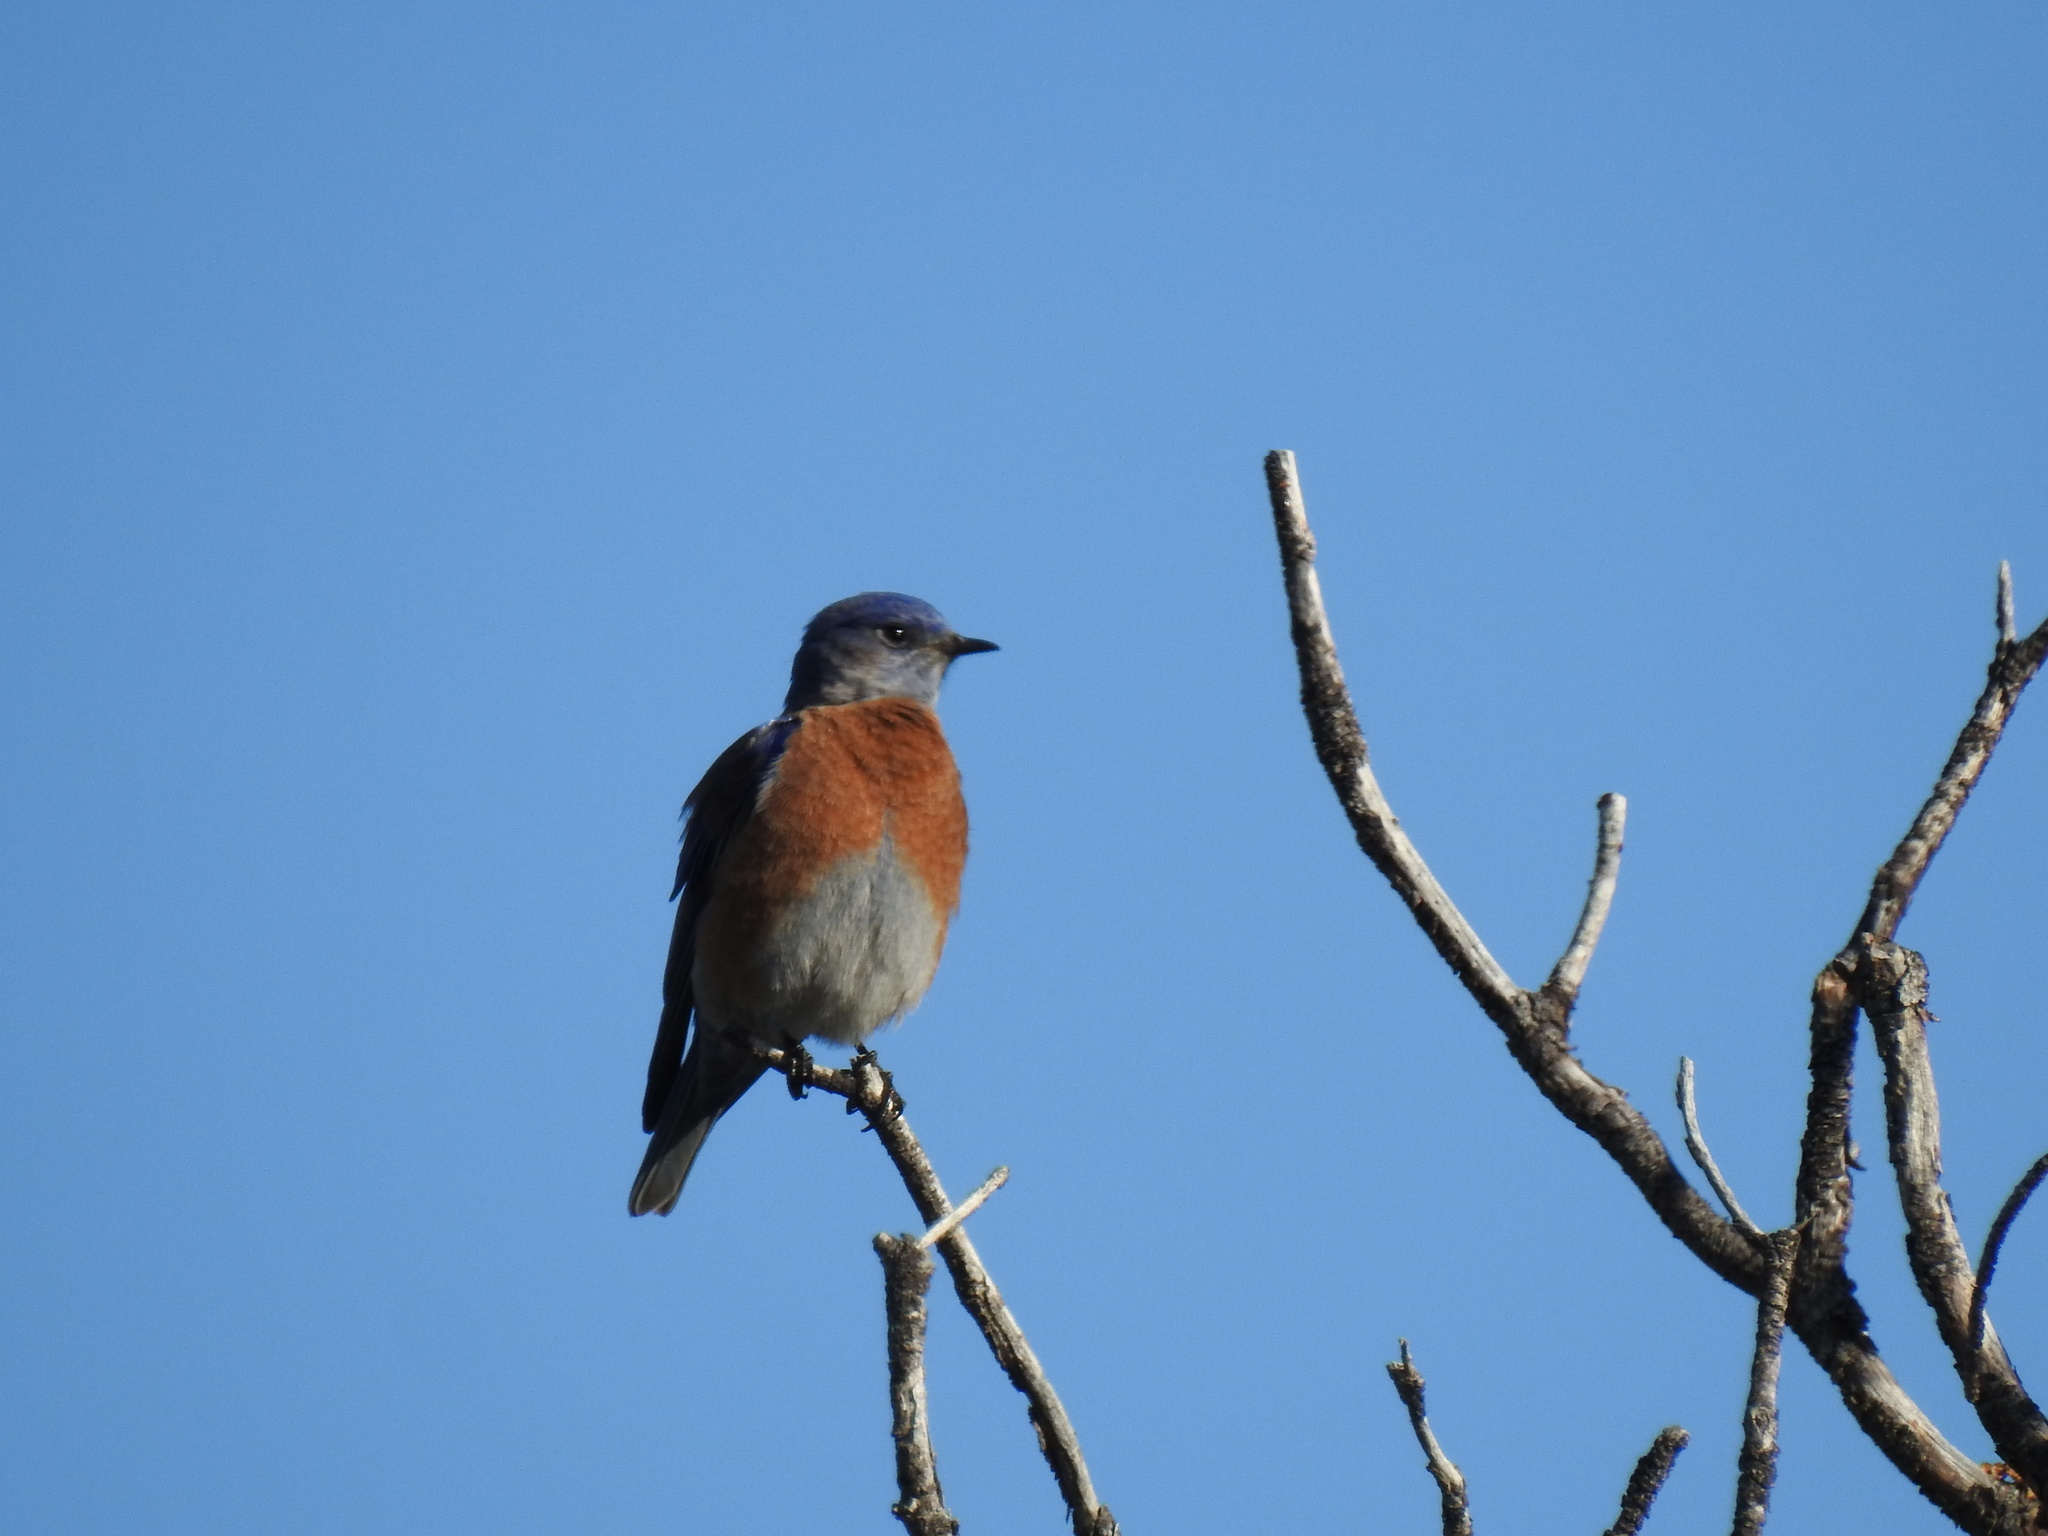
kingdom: Animalia
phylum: Chordata
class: Aves
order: Passeriformes
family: Turdidae
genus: Sialia
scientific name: Sialia mexicana
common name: Western bluebird
